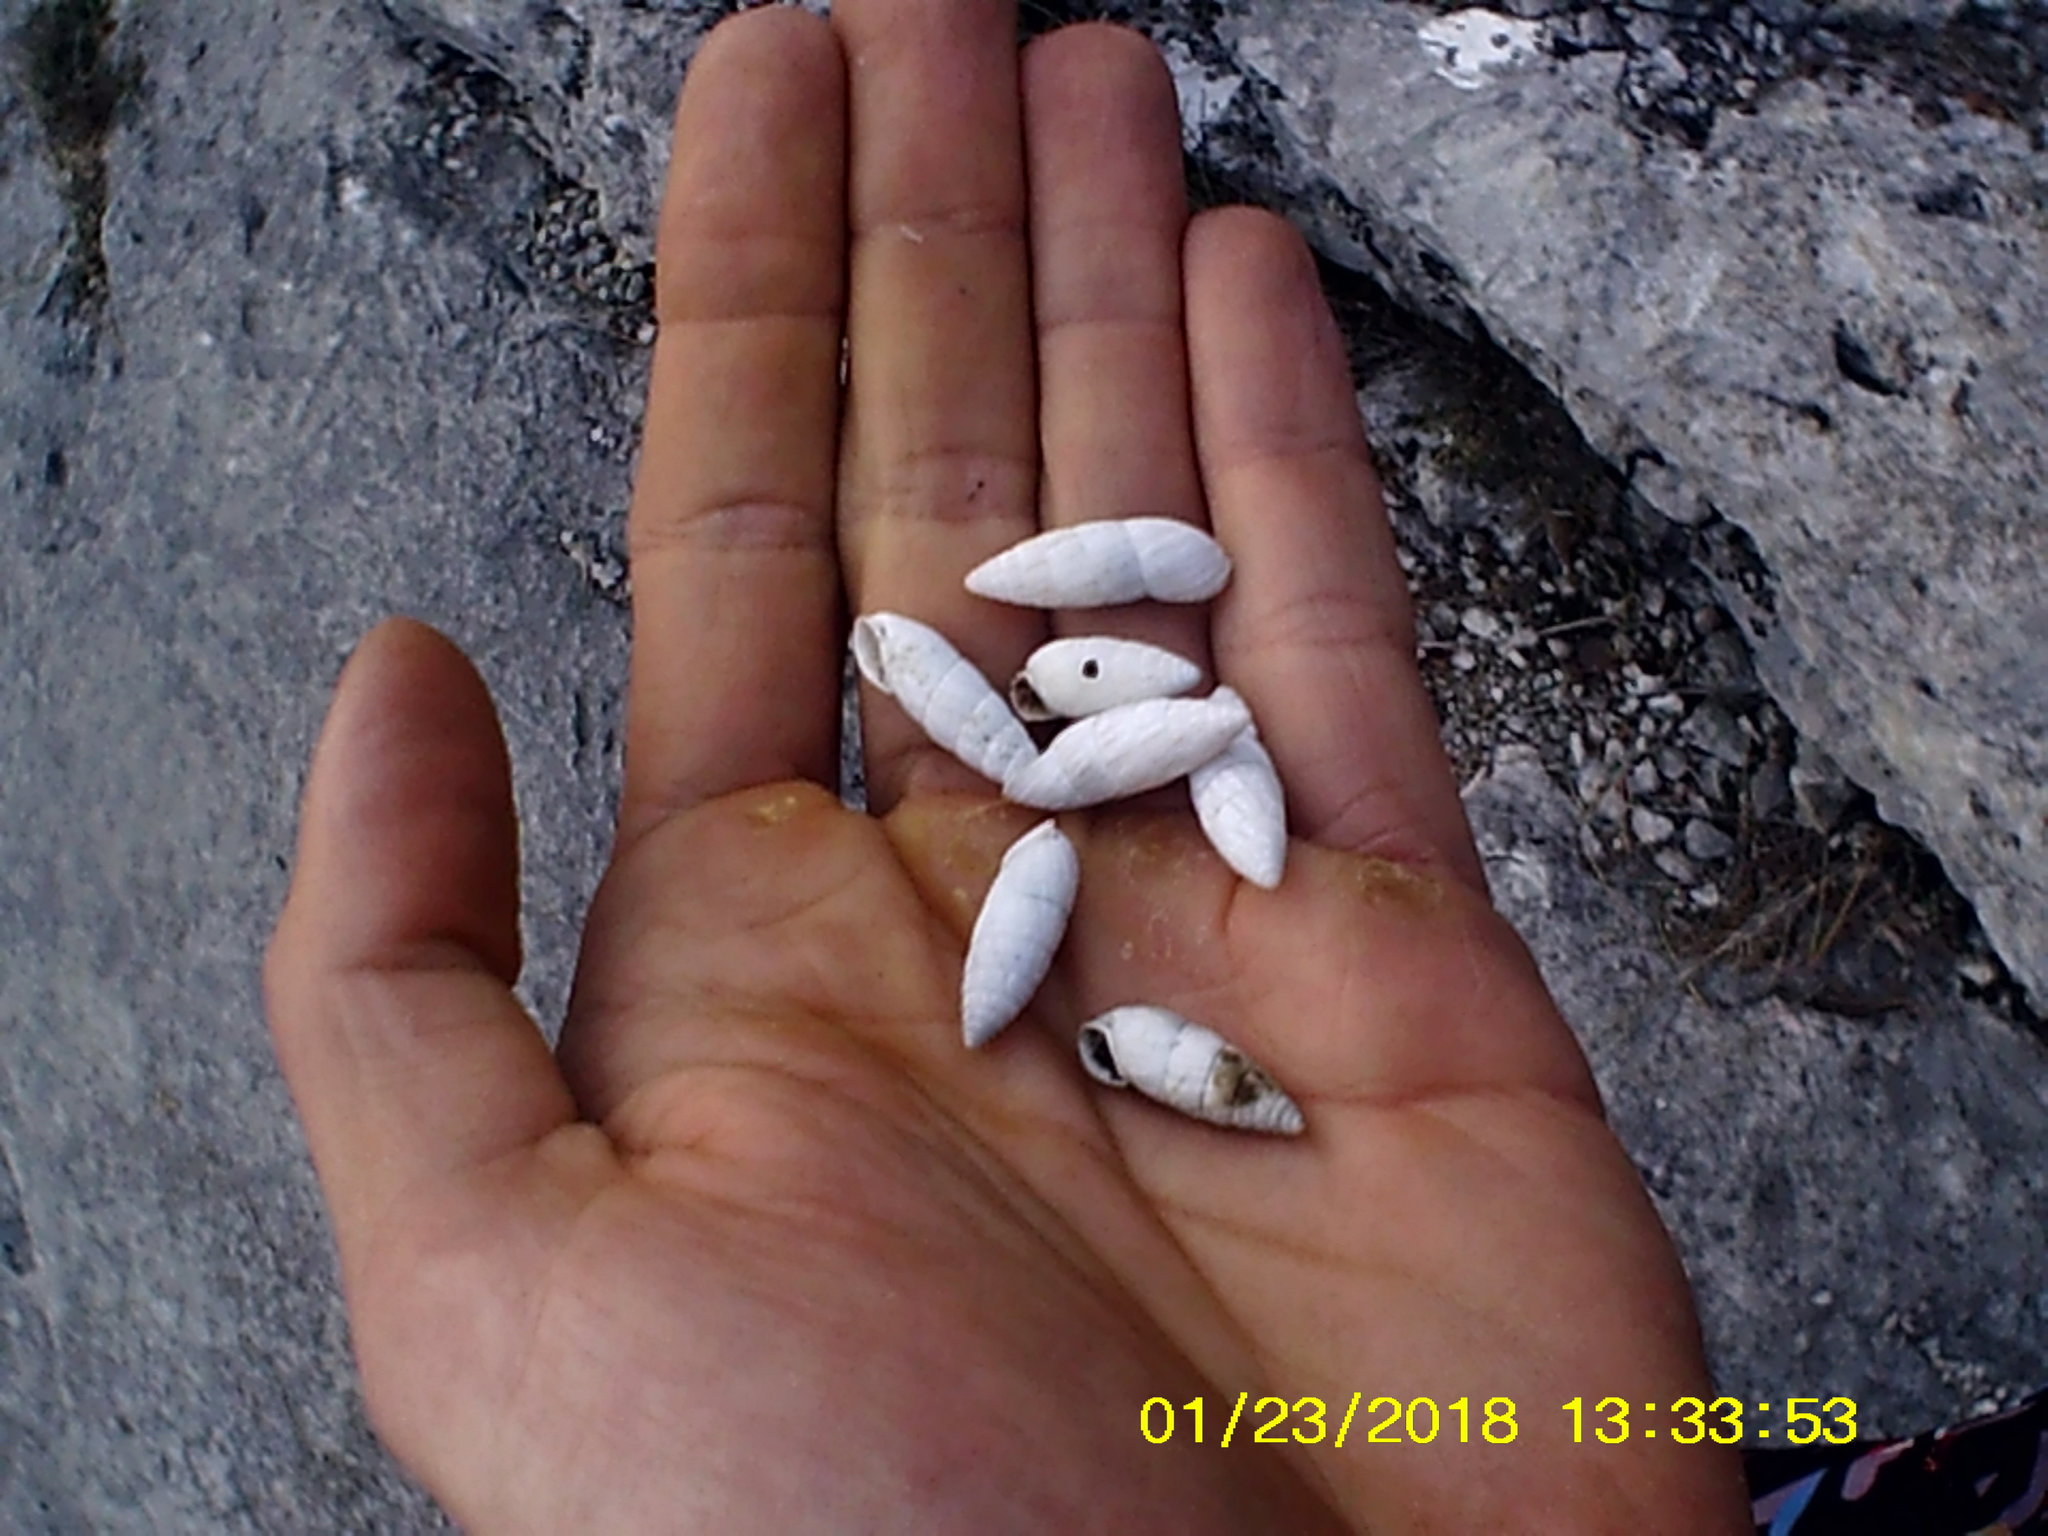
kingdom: Animalia
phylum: Mollusca
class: Gastropoda
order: Stylommatophora
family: Enidae
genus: Brephulopsis
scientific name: Brephulopsis cylindrica
